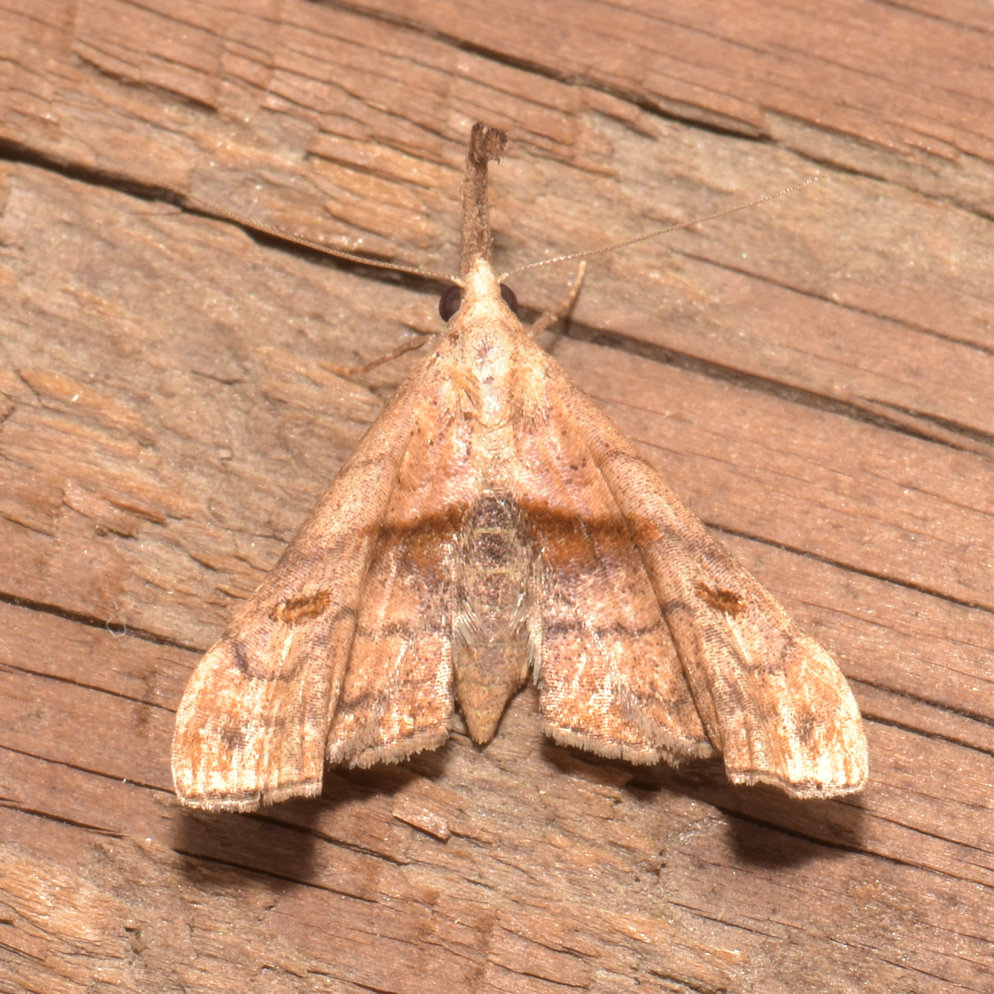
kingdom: Animalia
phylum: Arthropoda
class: Insecta
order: Lepidoptera
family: Erebidae
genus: Palthis
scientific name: Palthis angulalis
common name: Dark-spotted palthis moth
